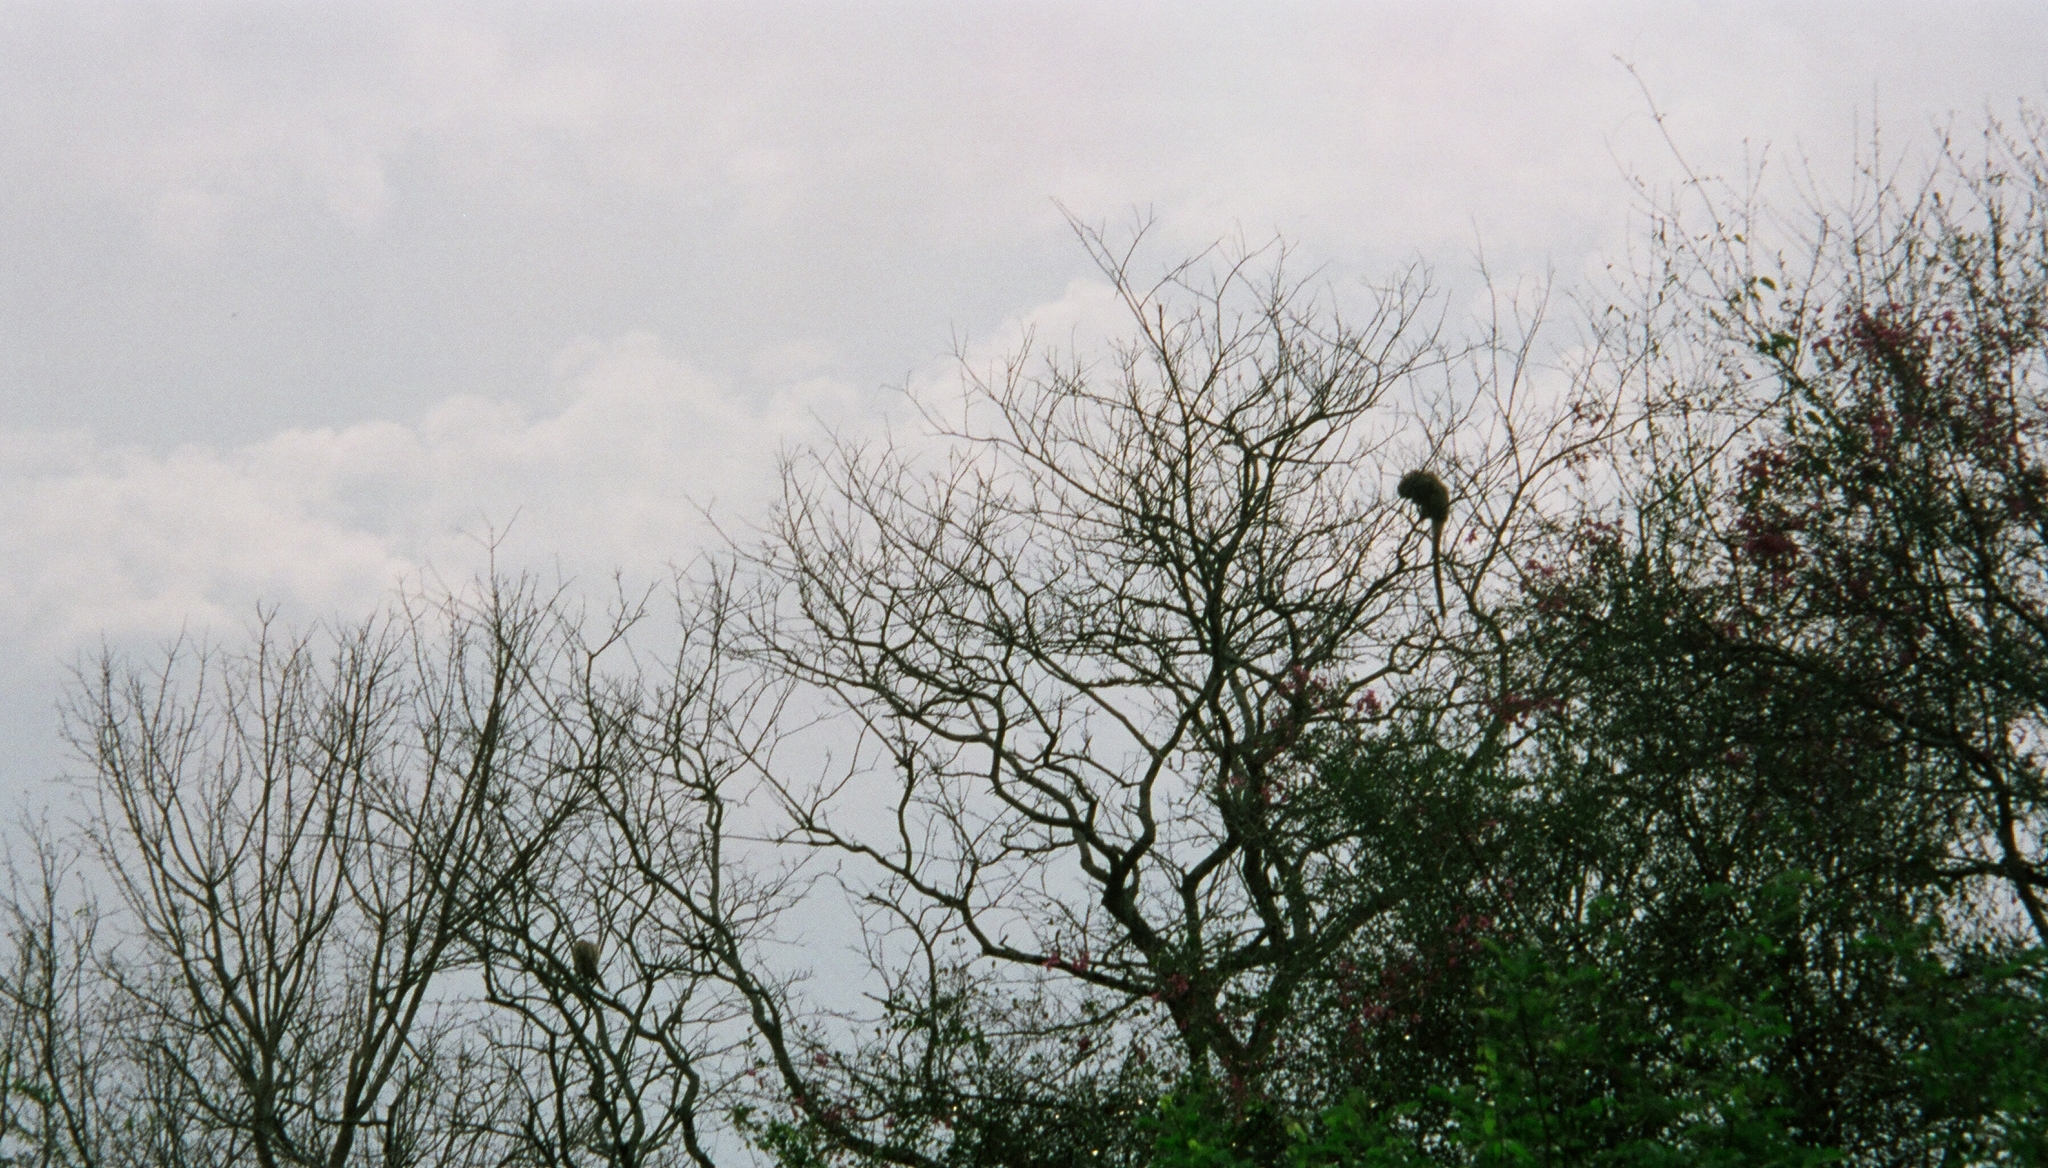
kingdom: Animalia
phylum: Chordata
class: Mammalia
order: Primates
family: Pitheciidae
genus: Plecturocebus
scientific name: Plecturocebus pallescens
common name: Pale titi
